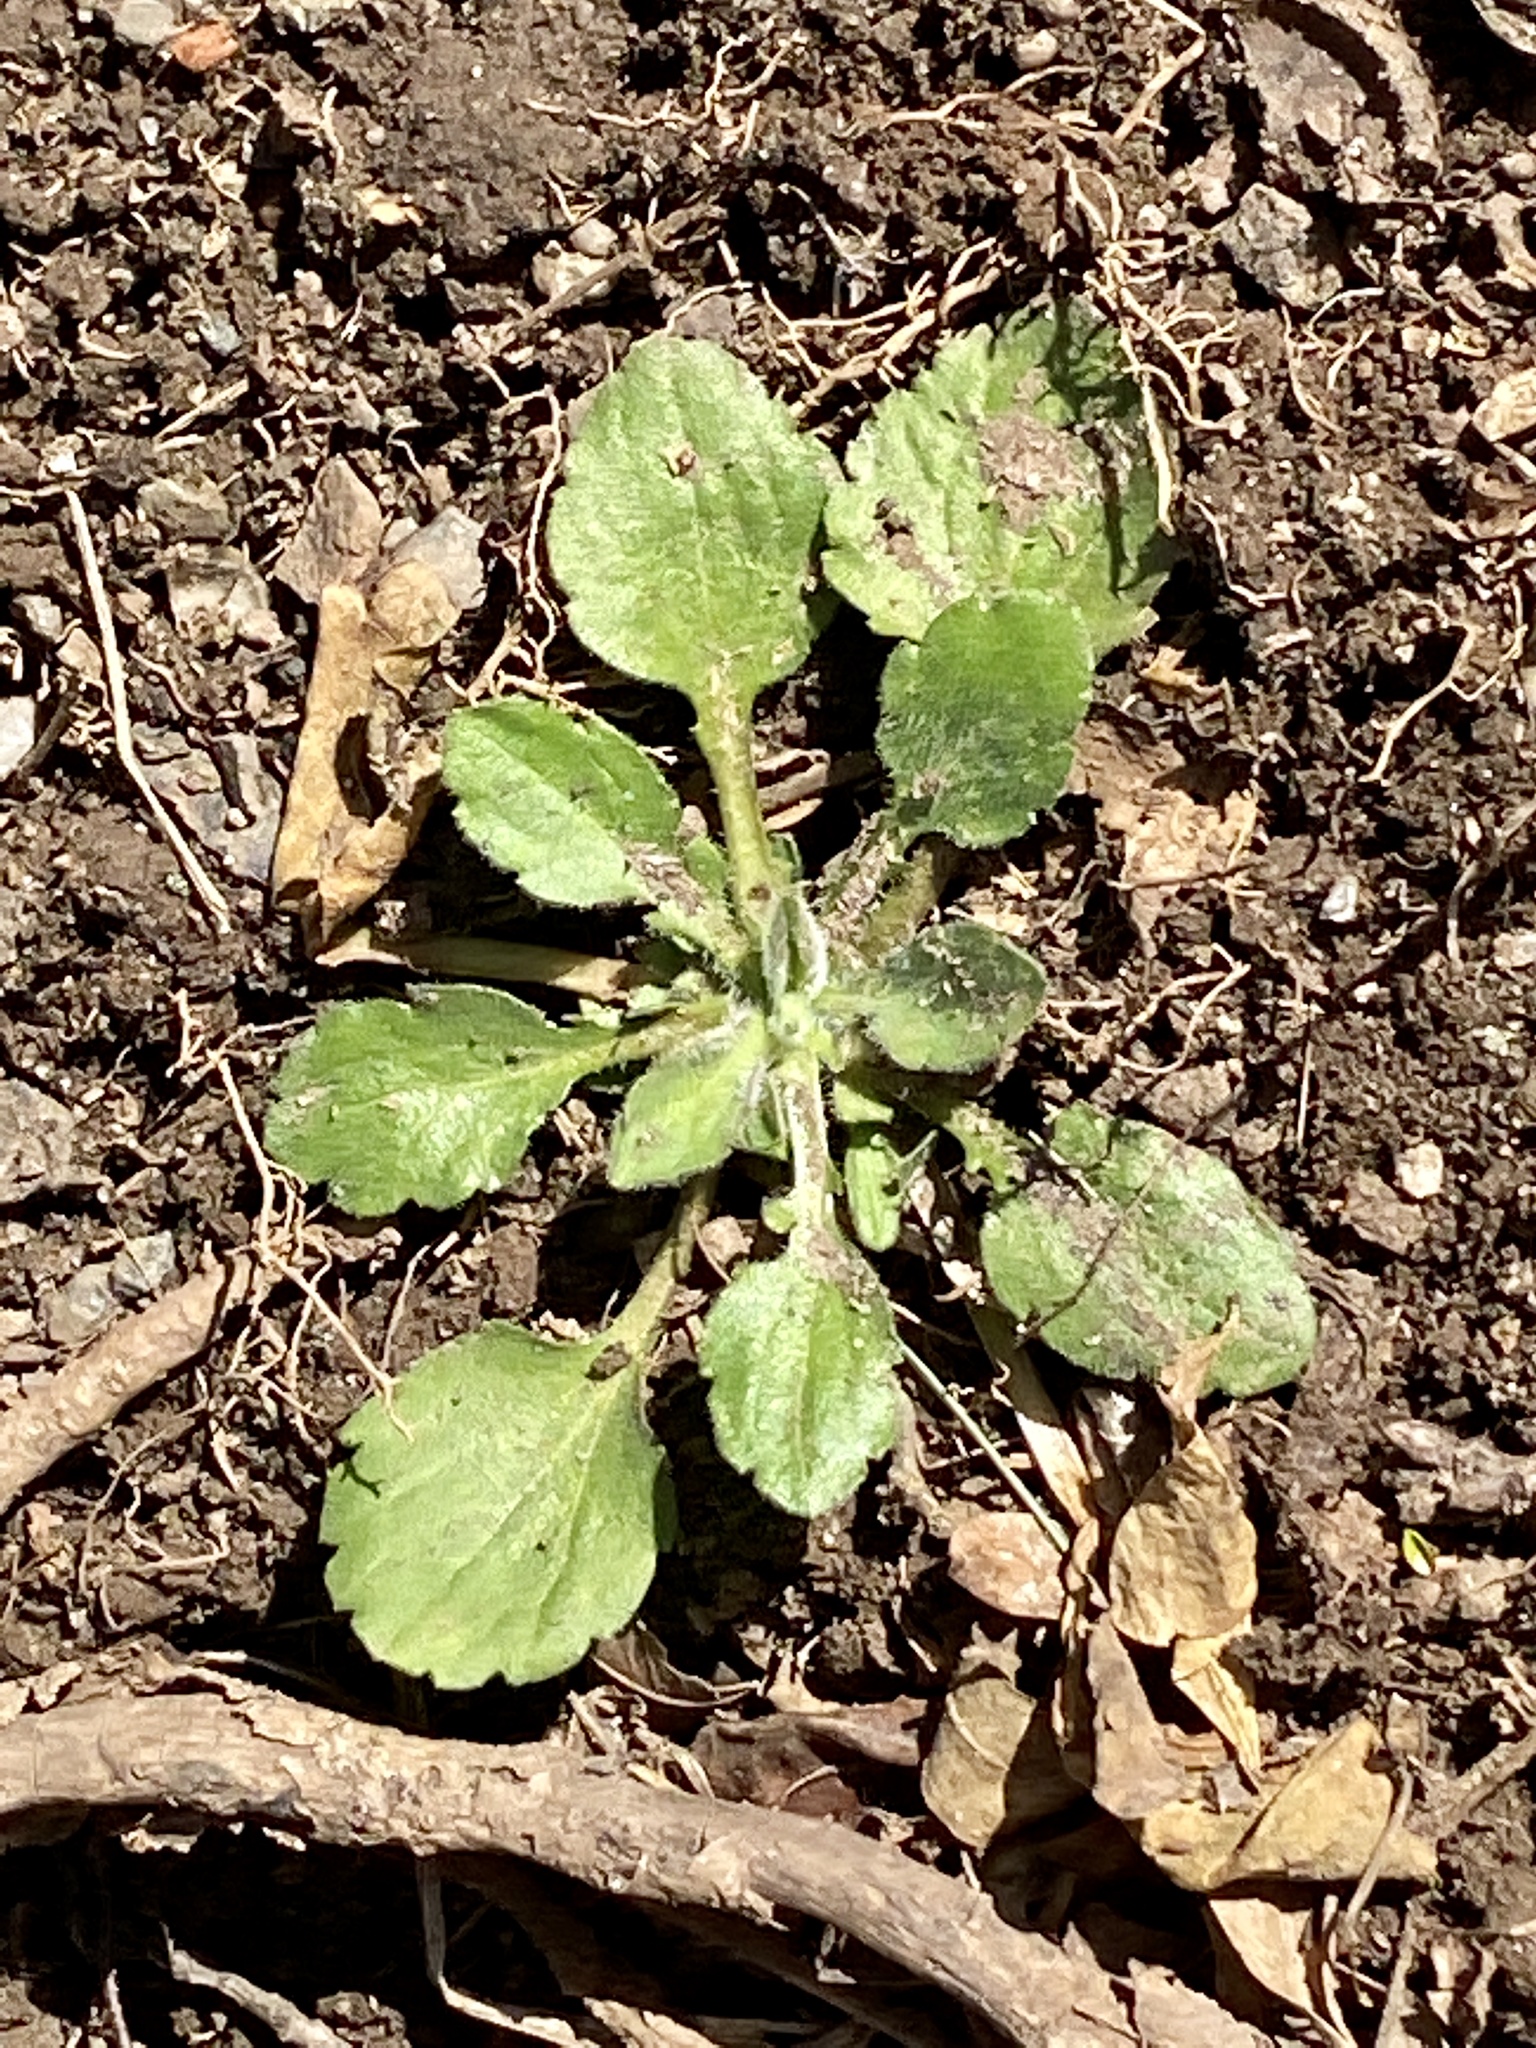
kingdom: Plantae
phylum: Tracheophyta
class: Magnoliopsida
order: Asterales
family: Asteraceae
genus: Erigeron
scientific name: Erigeron canadensis
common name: Canadian fleabane
